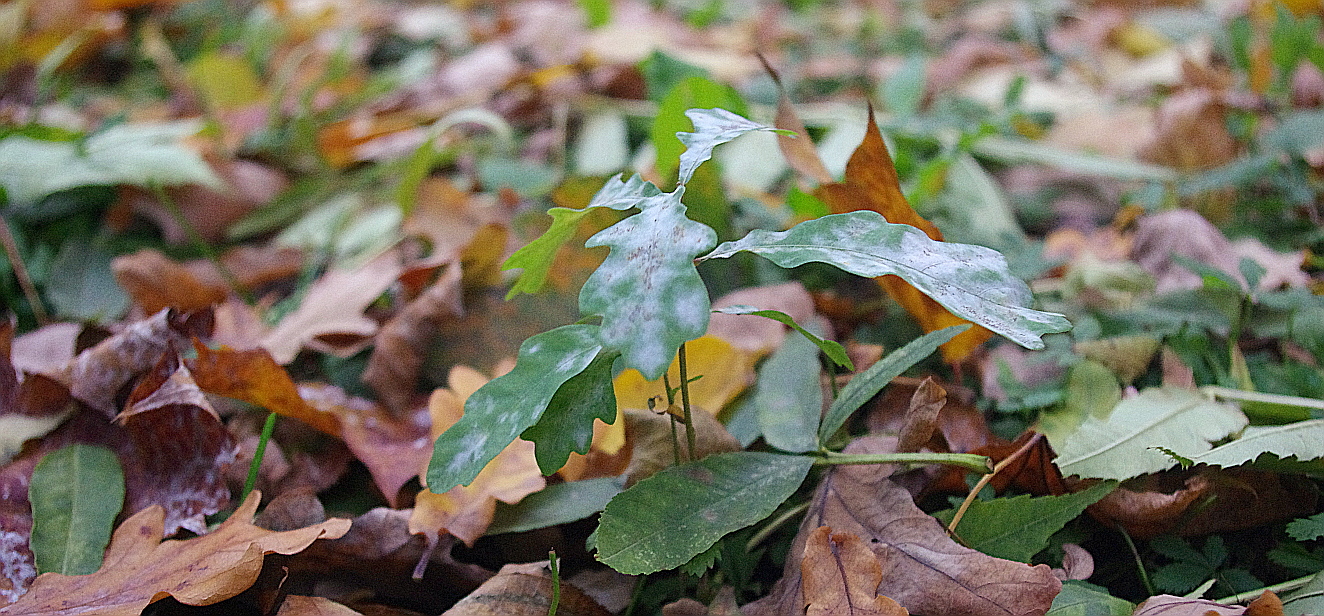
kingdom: Fungi
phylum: Ascomycota
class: Leotiomycetes
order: Helotiales
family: Erysiphaceae
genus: Erysiphe
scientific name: Erysiphe alphitoides
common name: Oak mildew
